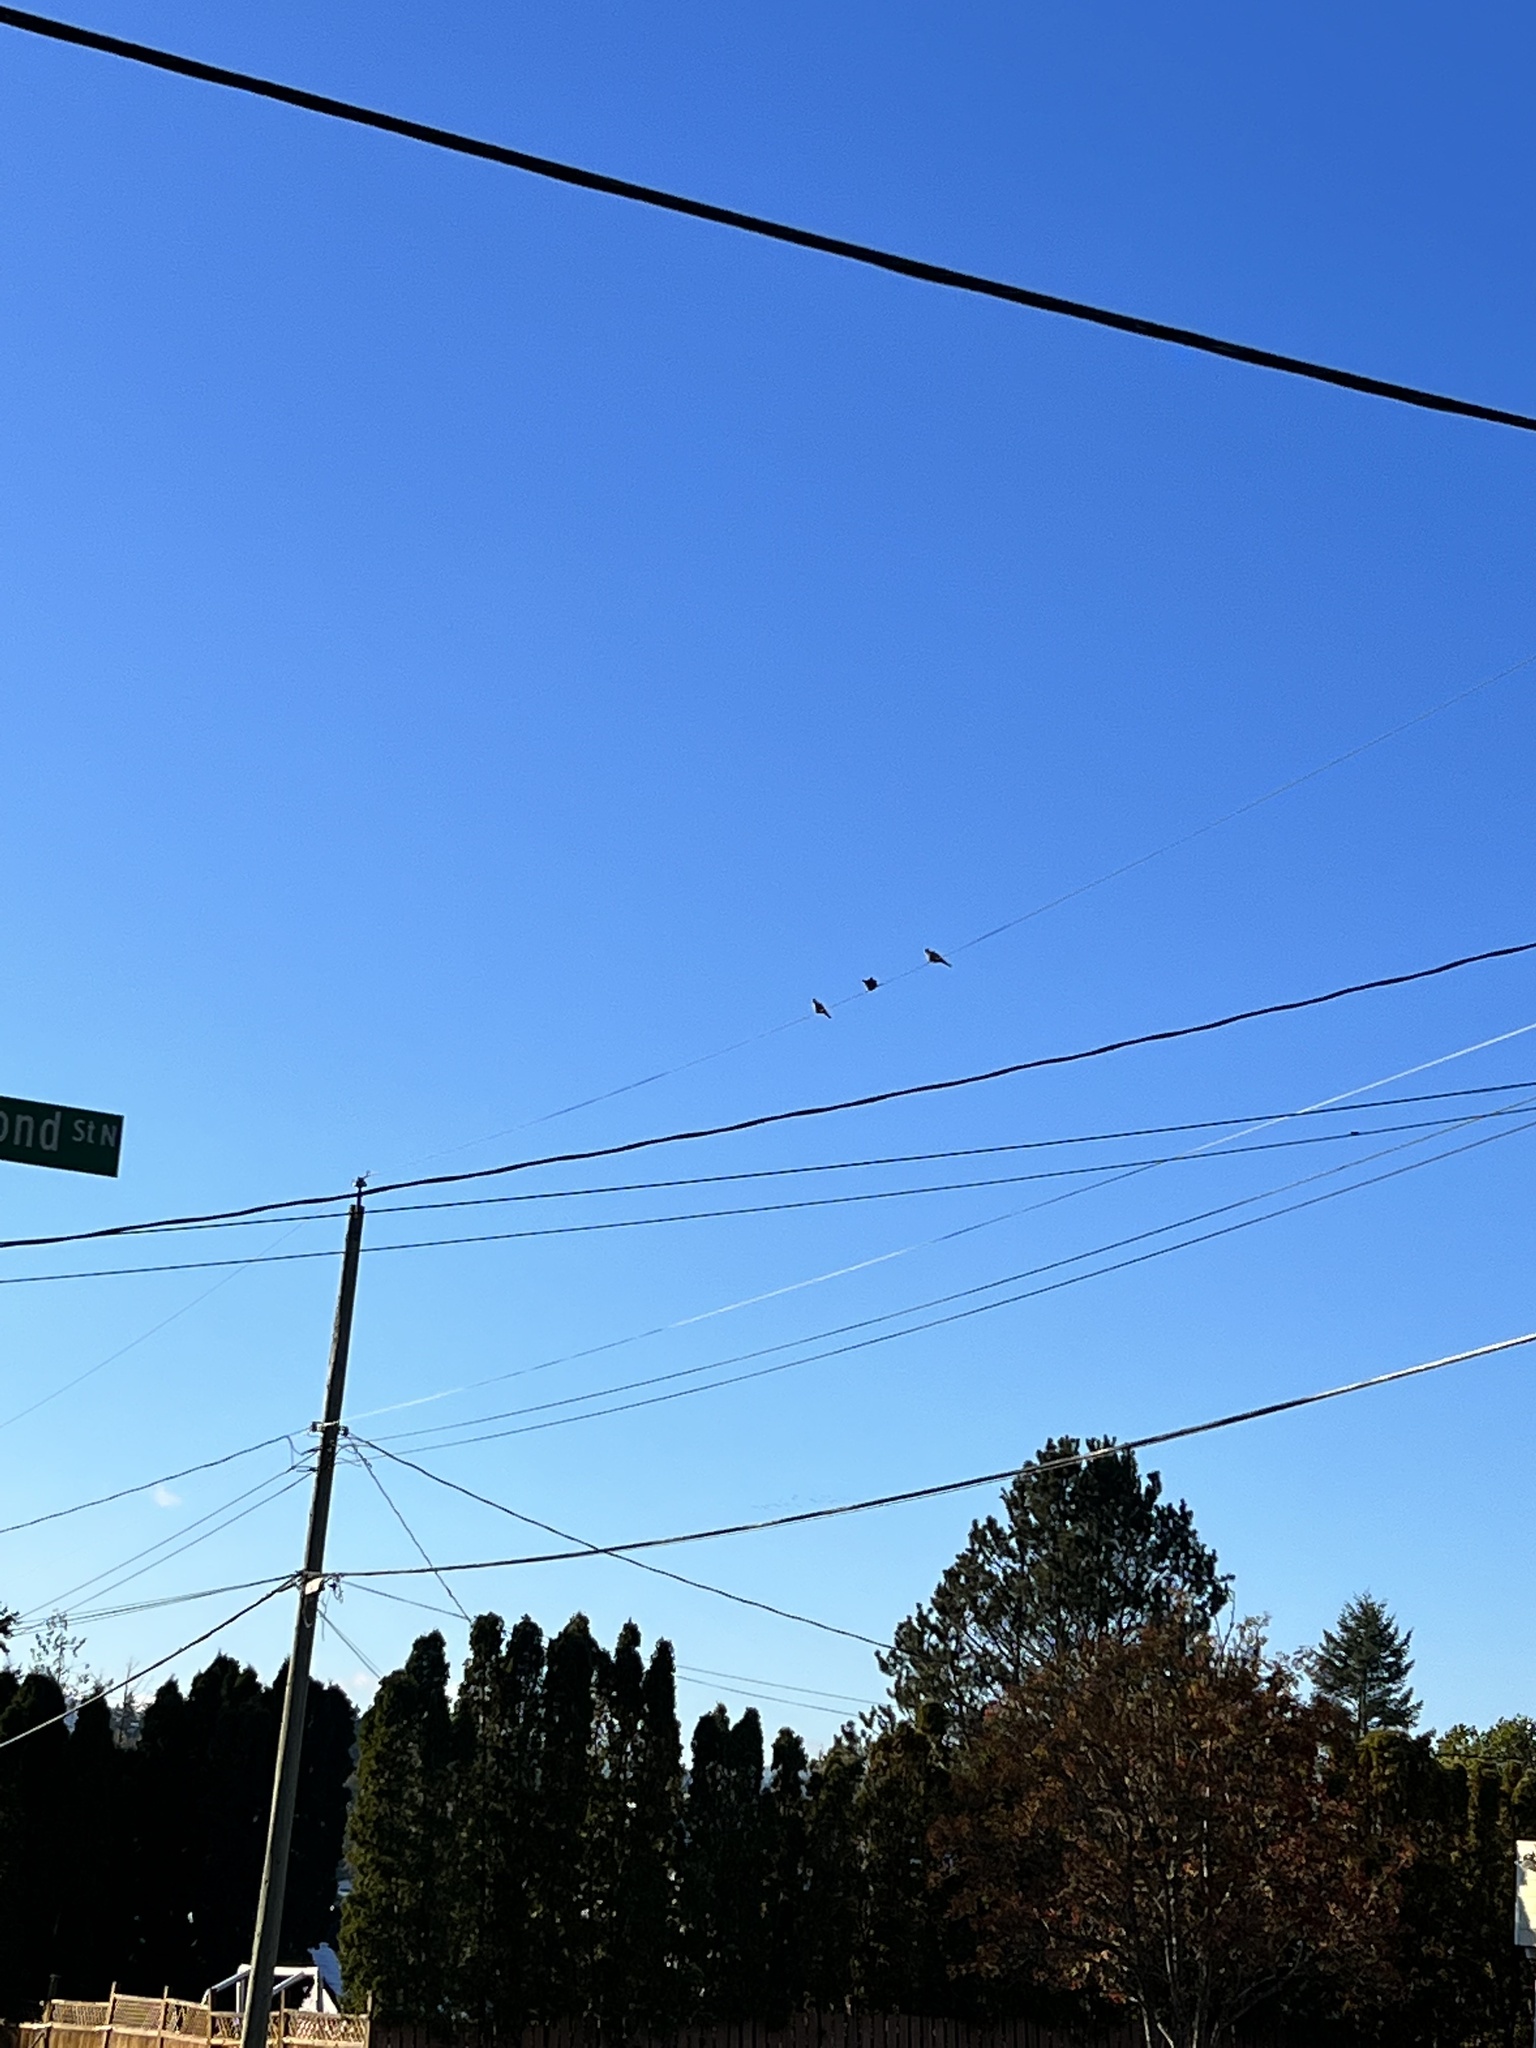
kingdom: Animalia
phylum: Chordata
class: Aves
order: Columbiformes
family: Columbidae
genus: Streptopelia
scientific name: Streptopelia decaocto
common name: Eurasian collared dove
